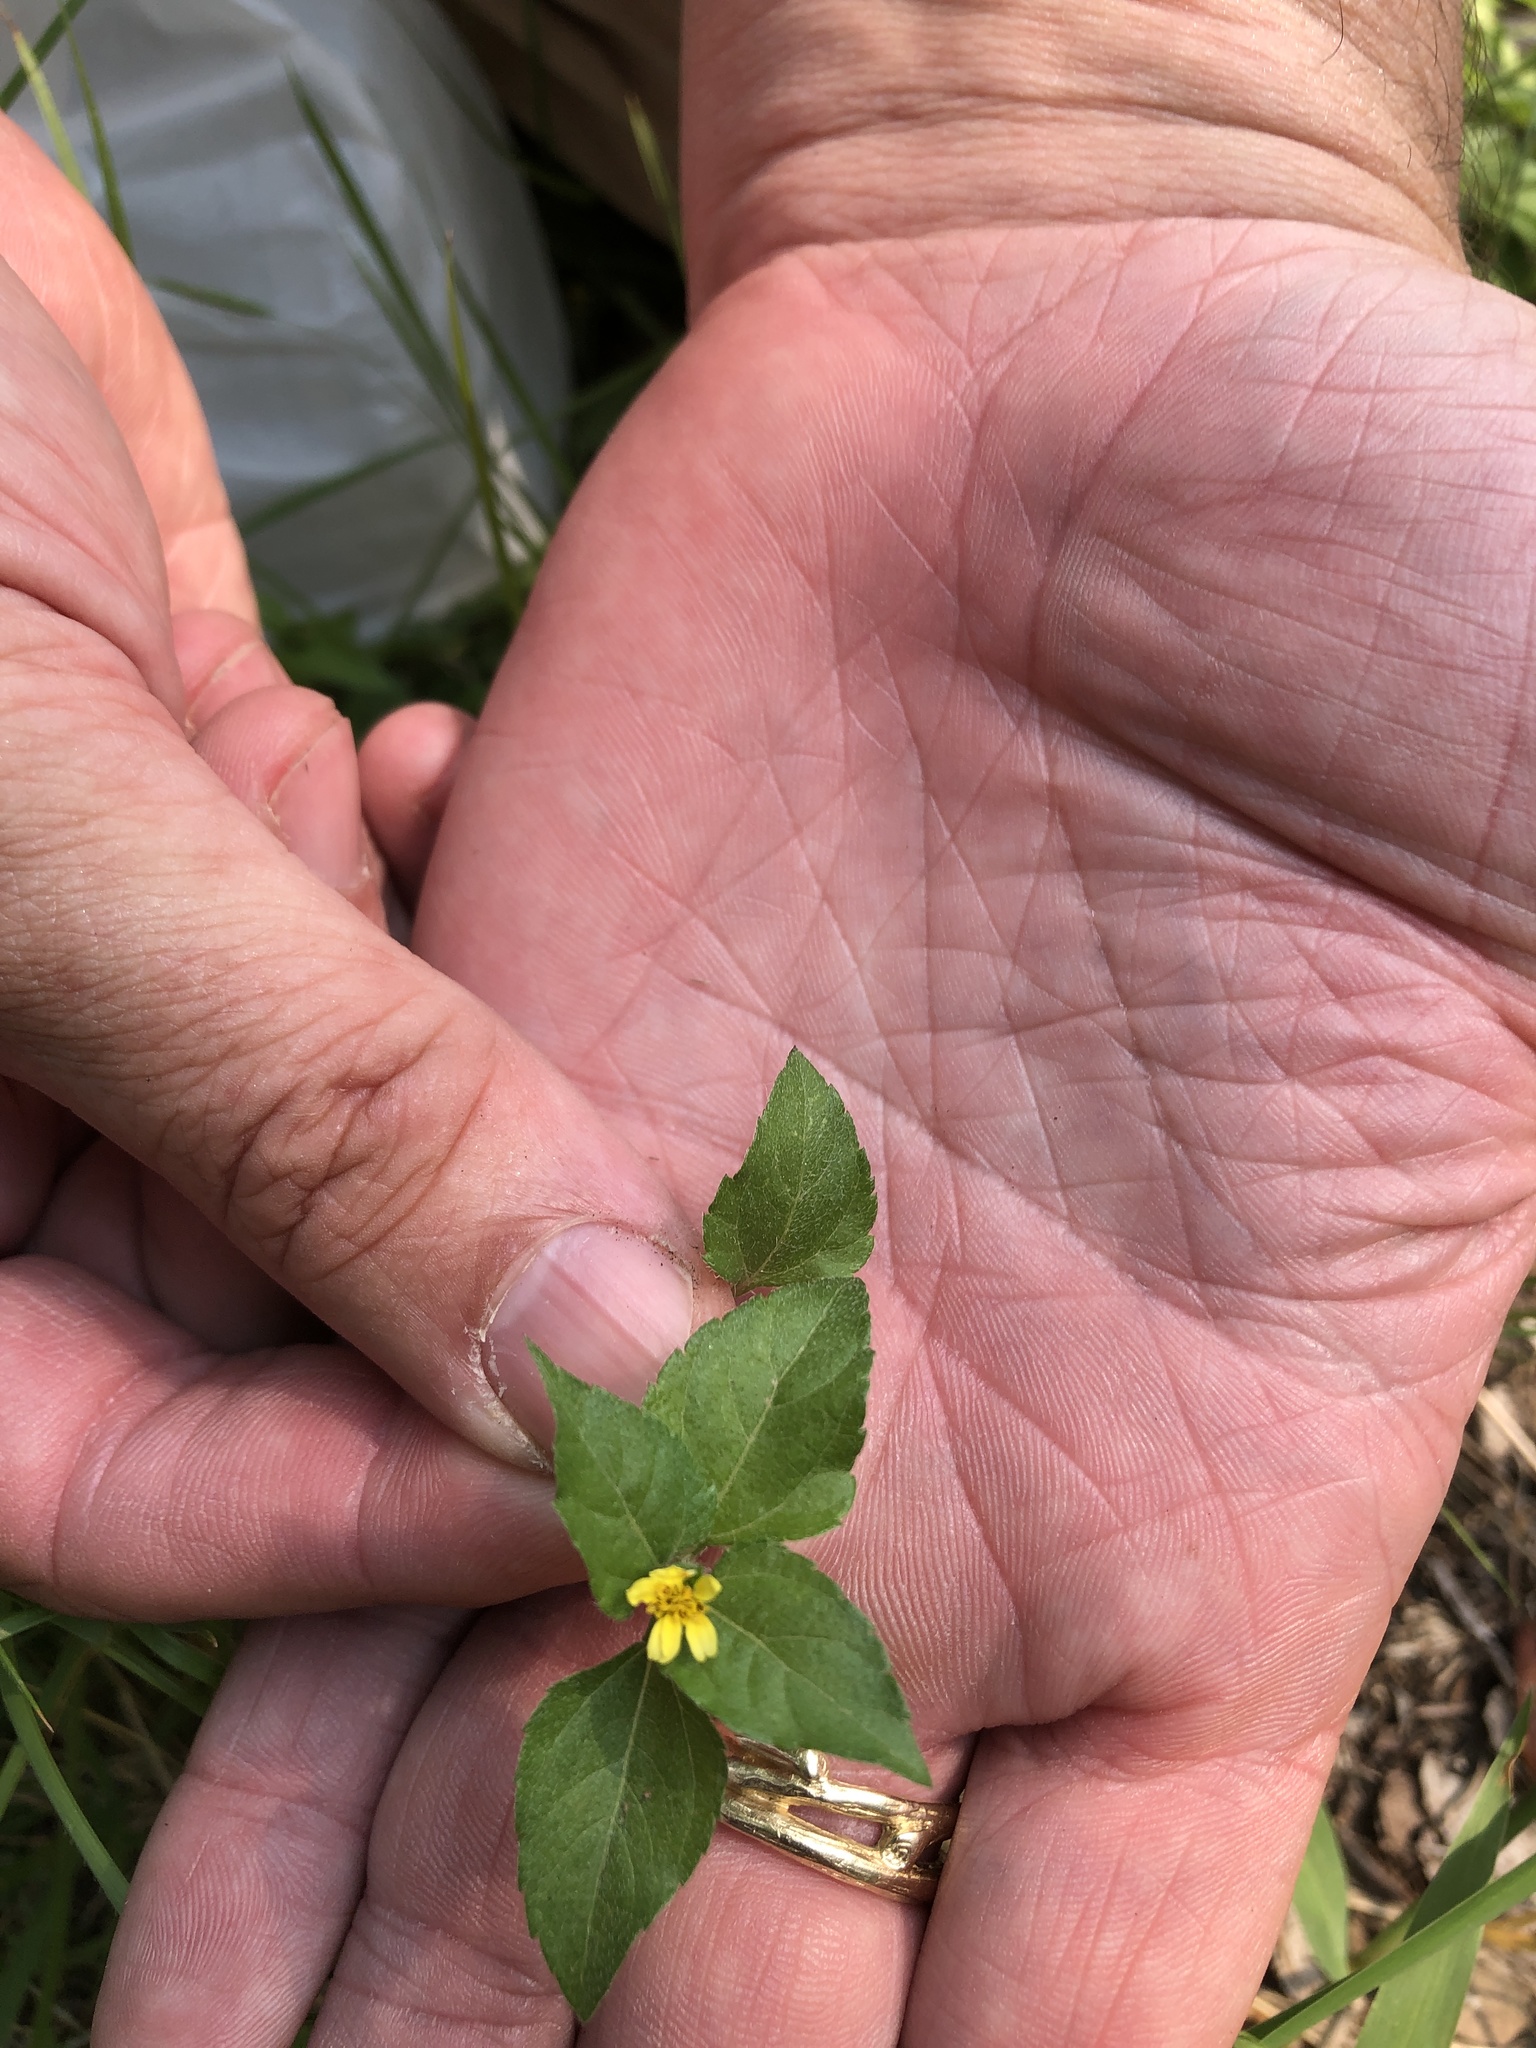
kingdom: Plantae
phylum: Tracheophyta
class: Magnoliopsida
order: Asterales
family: Asteraceae
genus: Calyptocarpus
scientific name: Calyptocarpus vialis
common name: Straggler daisy
